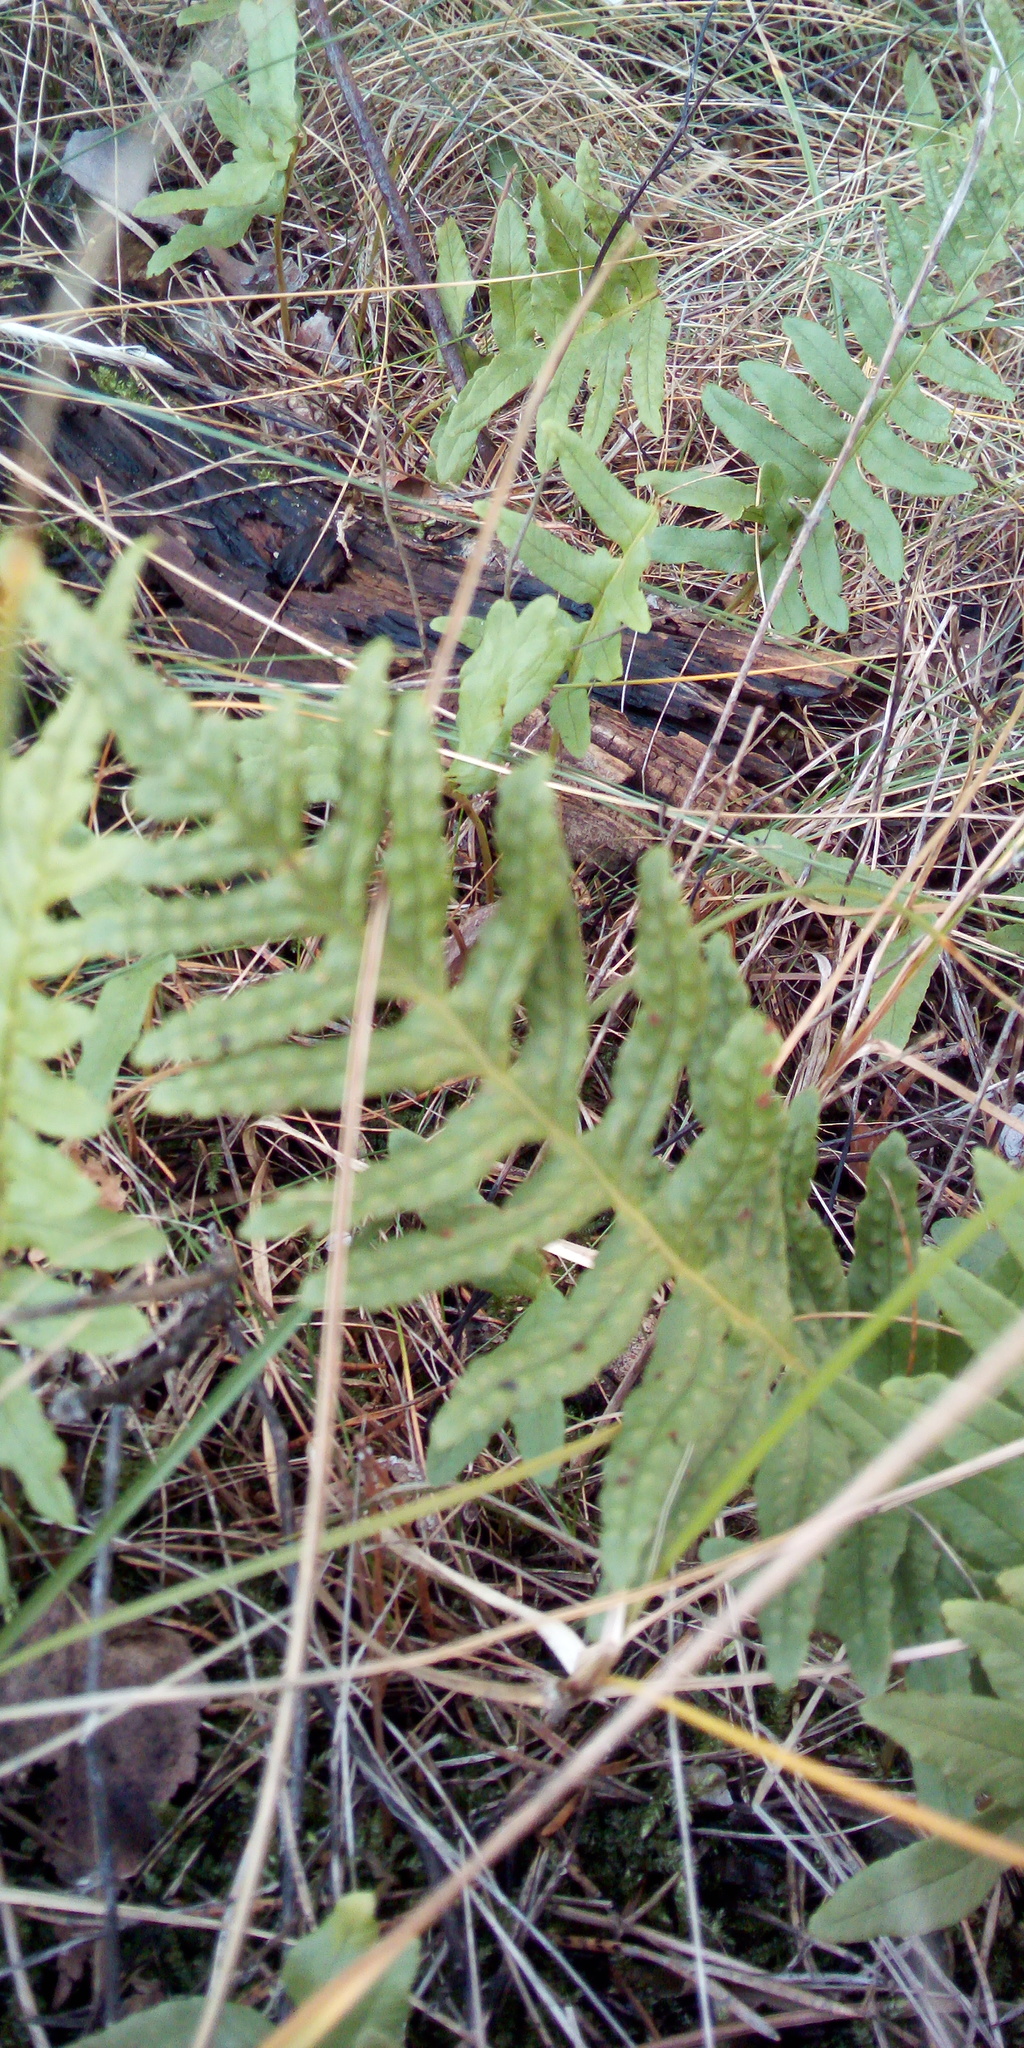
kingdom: Plantae
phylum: Tracheophyta
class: Polypodiopsida
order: Polypodiales
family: Polypodiaceae
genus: Polypodium
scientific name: Polypodium vulgare
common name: Common polypody
